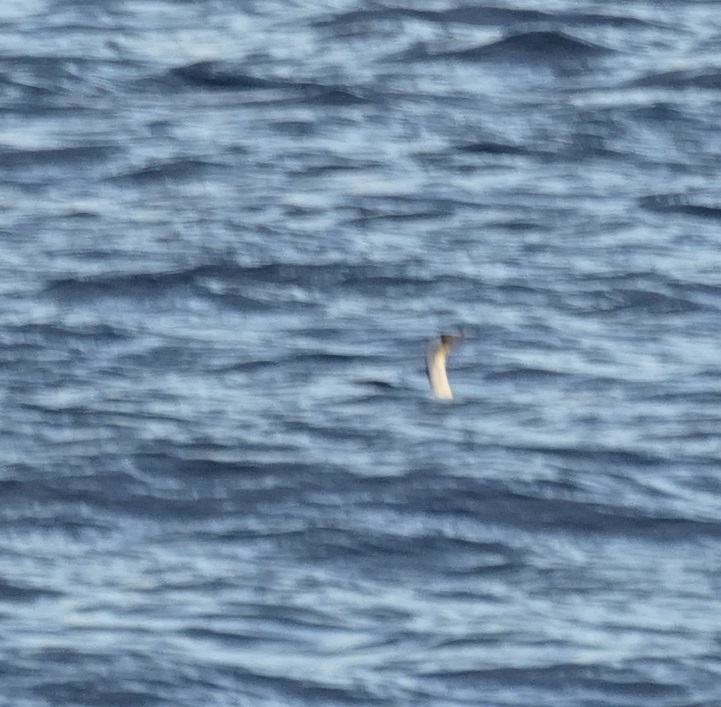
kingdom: Animalia
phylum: Chordata
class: Aves
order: Suliformes
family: Phalacrocoracidae
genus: Phalacrocorax
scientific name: Phalacrocorax varius
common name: Pied cormorant
